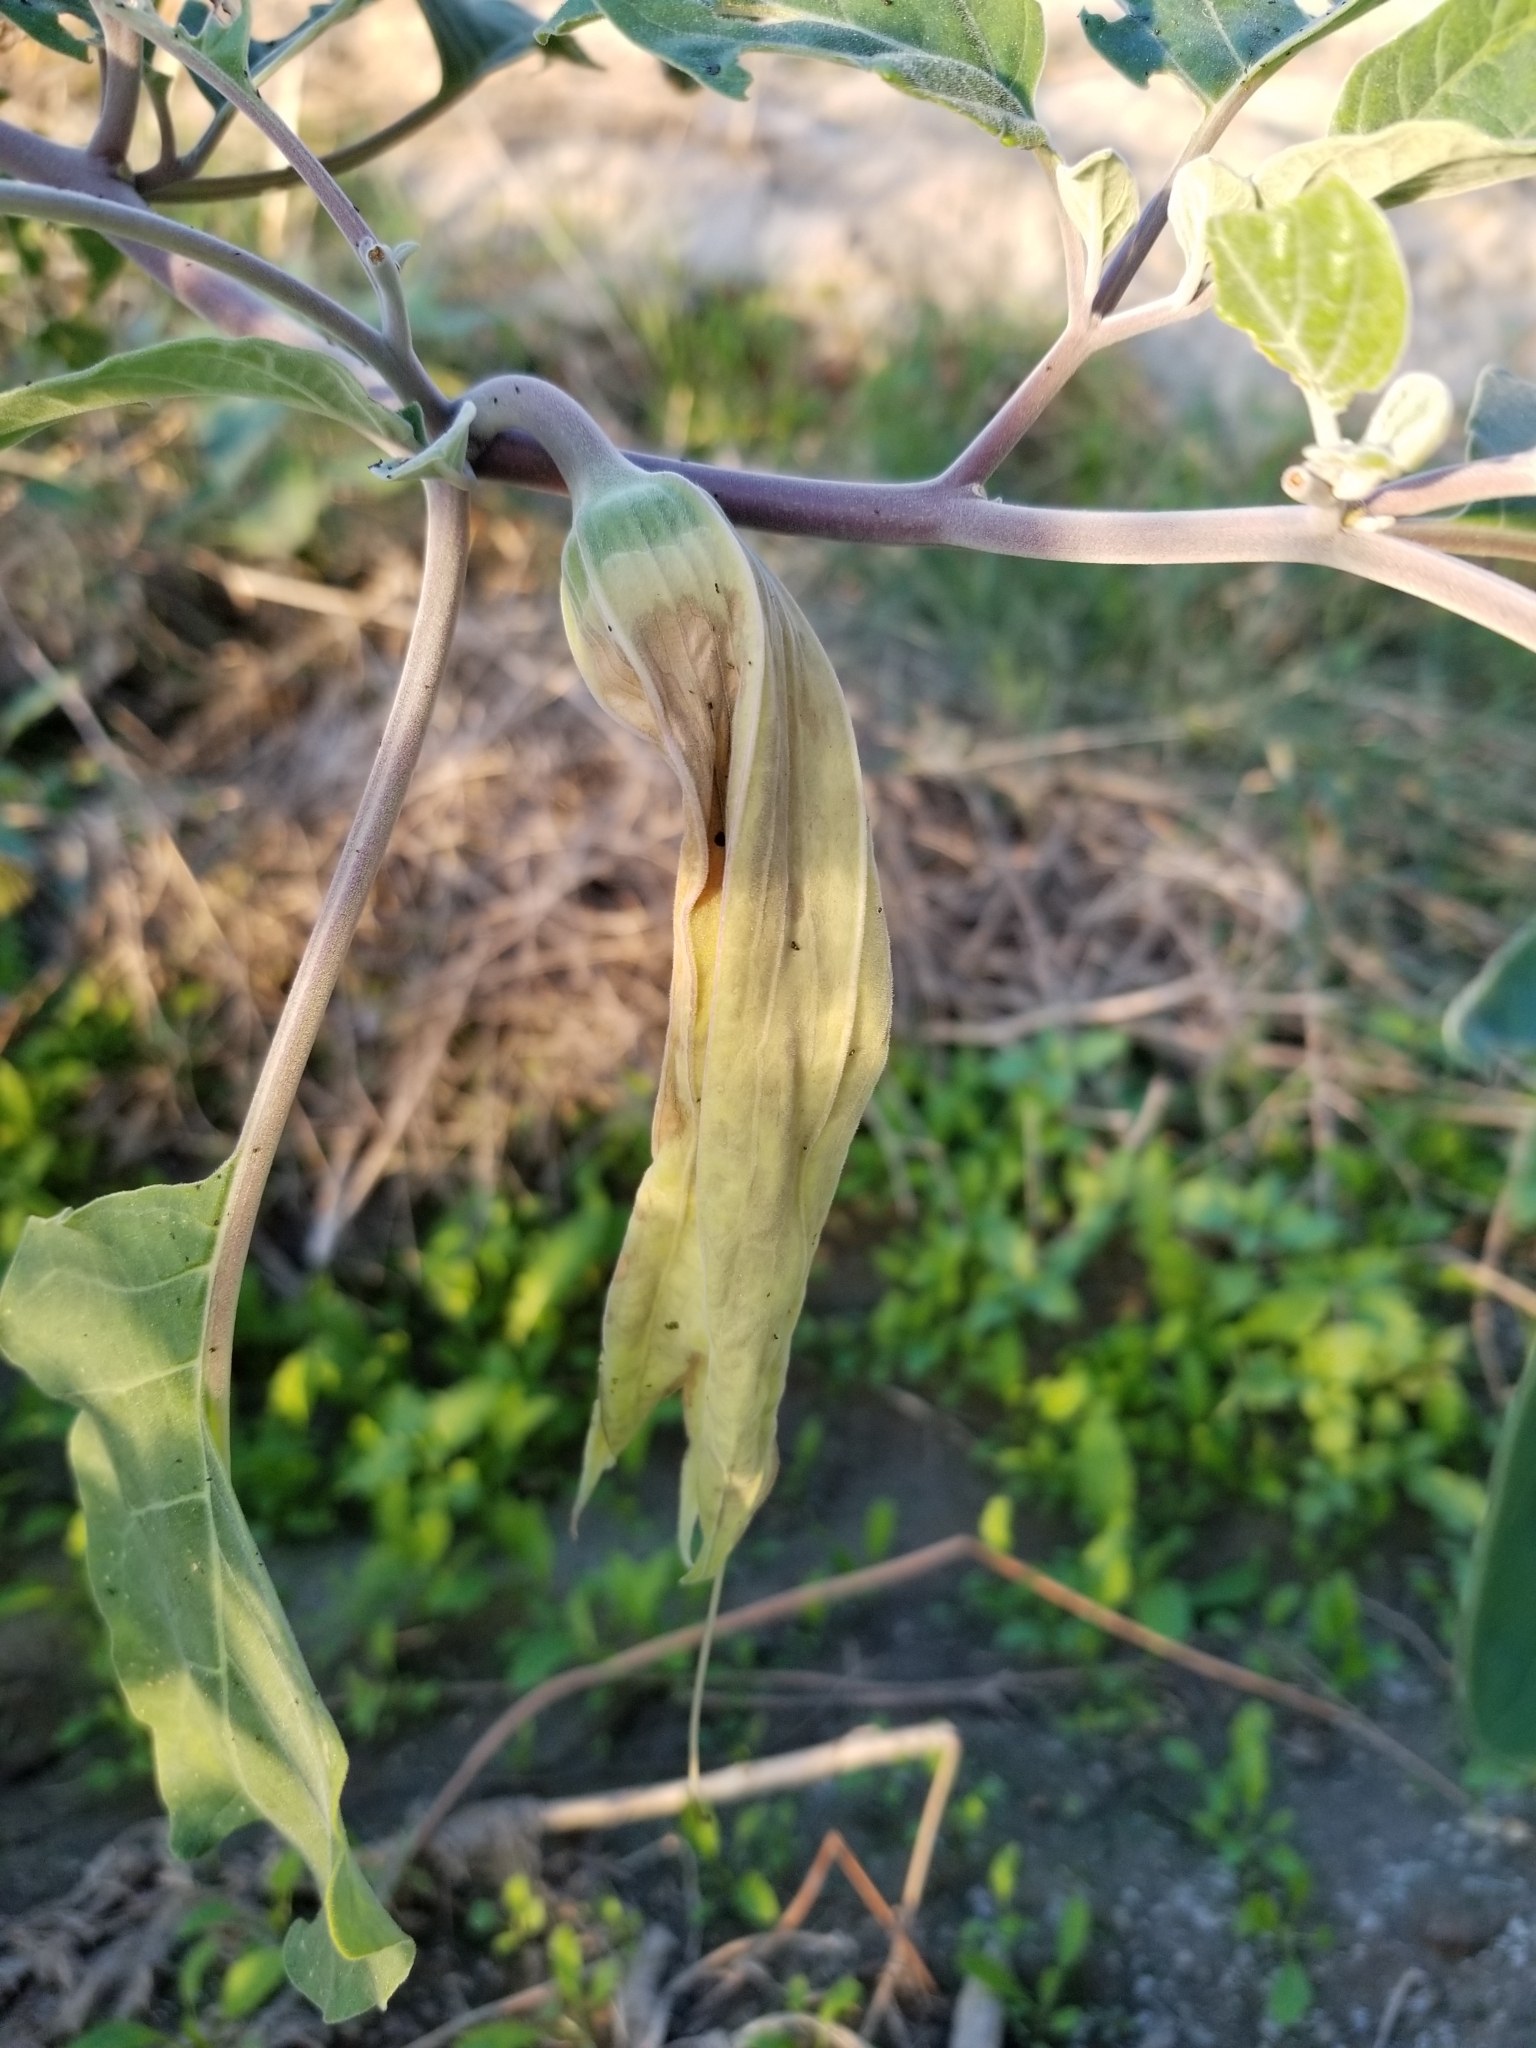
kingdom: Plantae
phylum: Tracheophyta
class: Magnoliopsida
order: Solanales
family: Solanaceae
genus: Datura
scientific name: Datura wrightii
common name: Sacred thorn-apple
